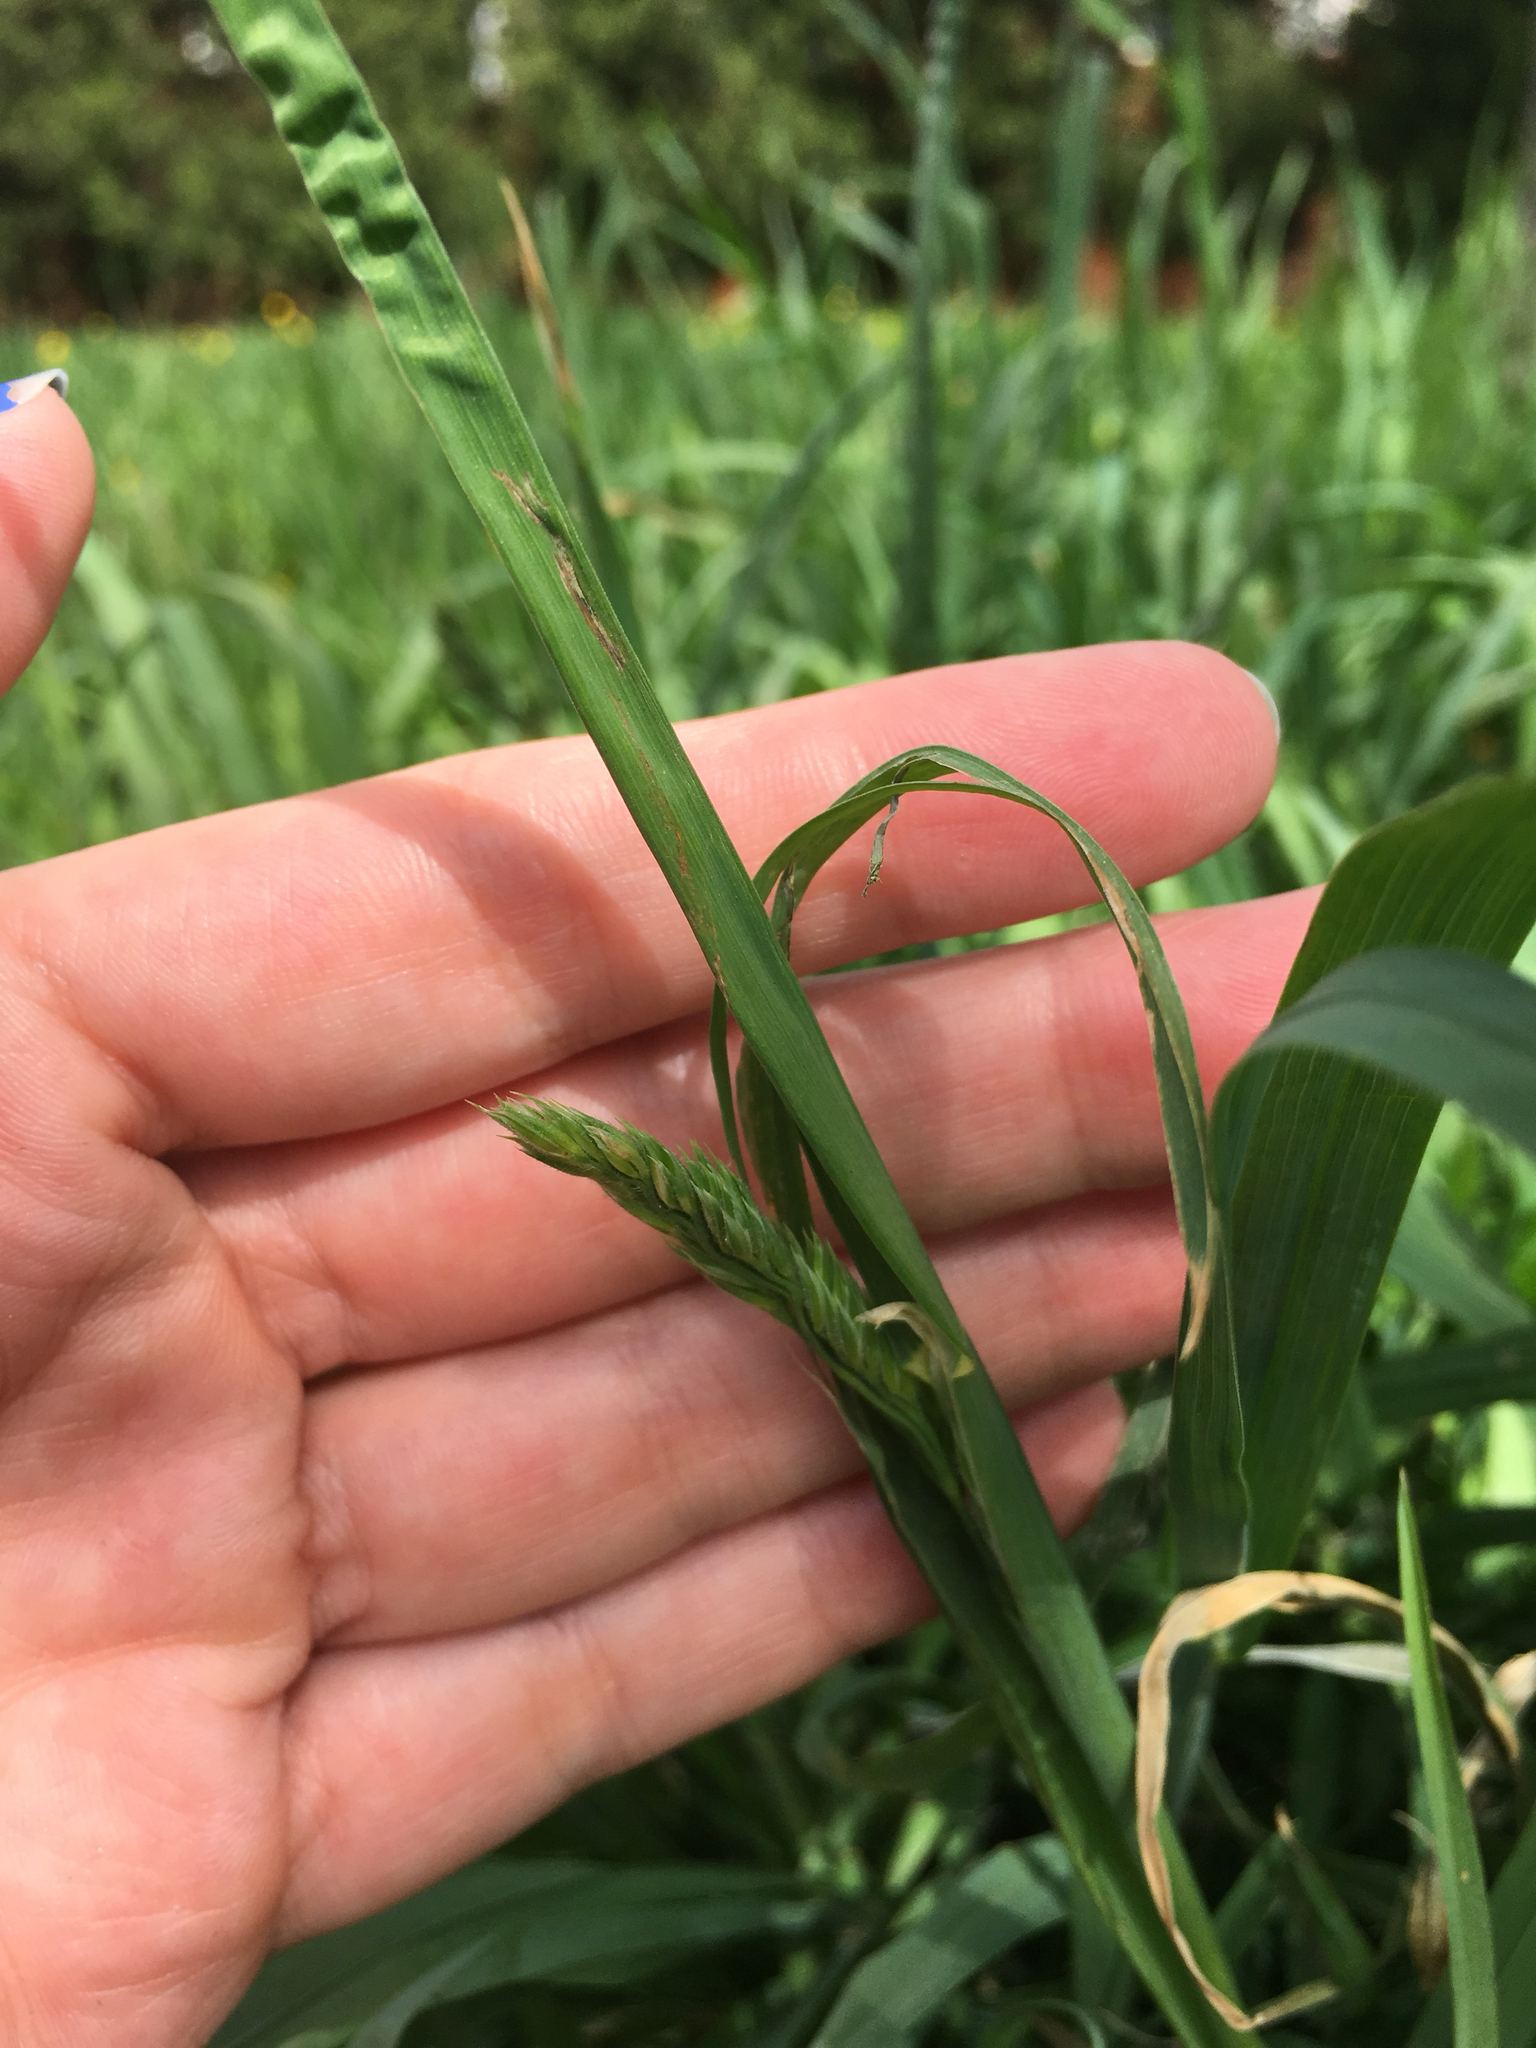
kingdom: Plantae
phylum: Tracheophyta
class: Liliopsida
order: Poales
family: Poaceae
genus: Dactylis
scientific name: Dactylis glomerata
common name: Orchardgrass
